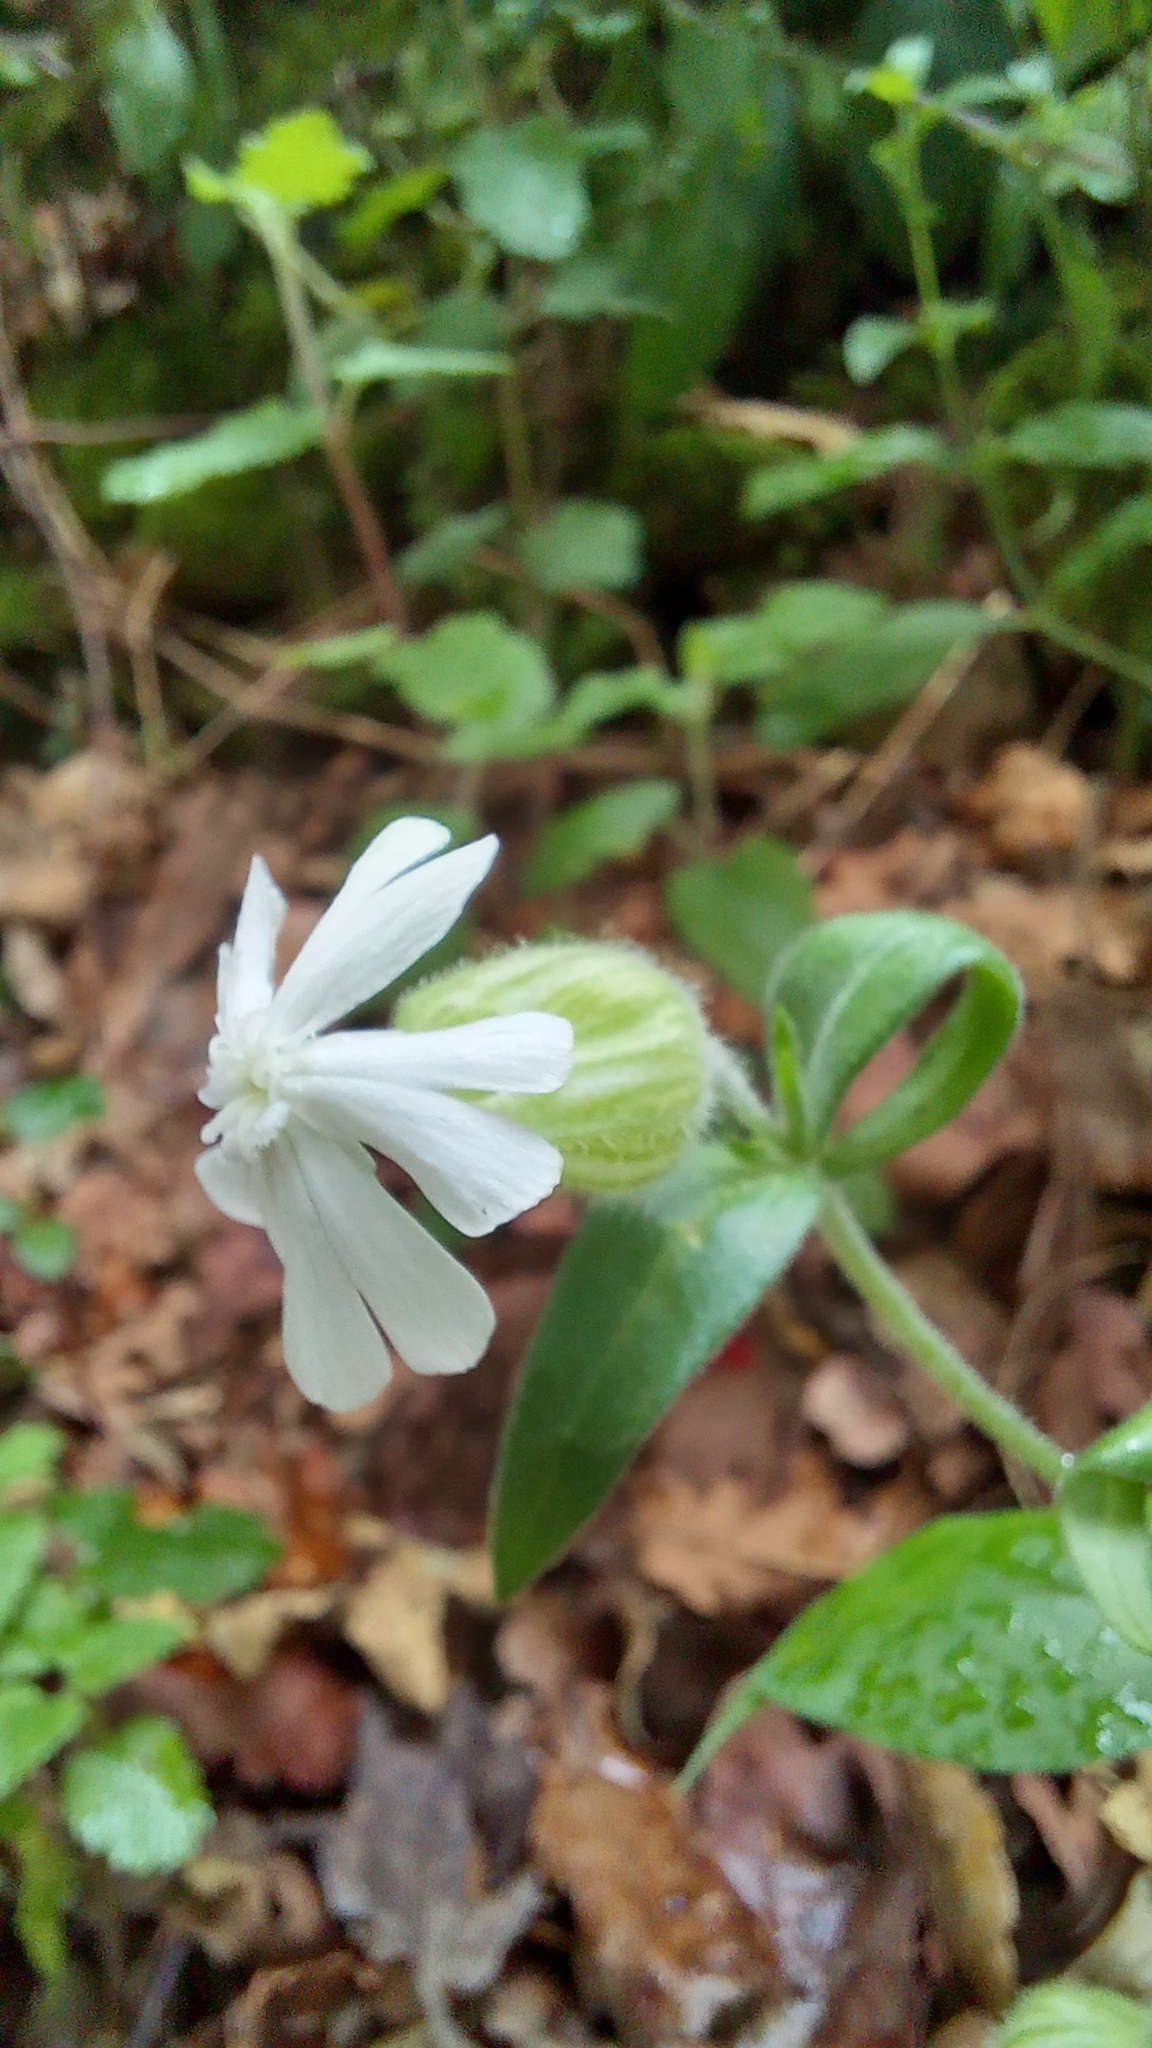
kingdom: Plantae
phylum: Tracheophyta
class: Magnoliopsida
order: Caryophyllales
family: Caryophyllaceae
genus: Silene
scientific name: Silene latifolia
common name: White campion
